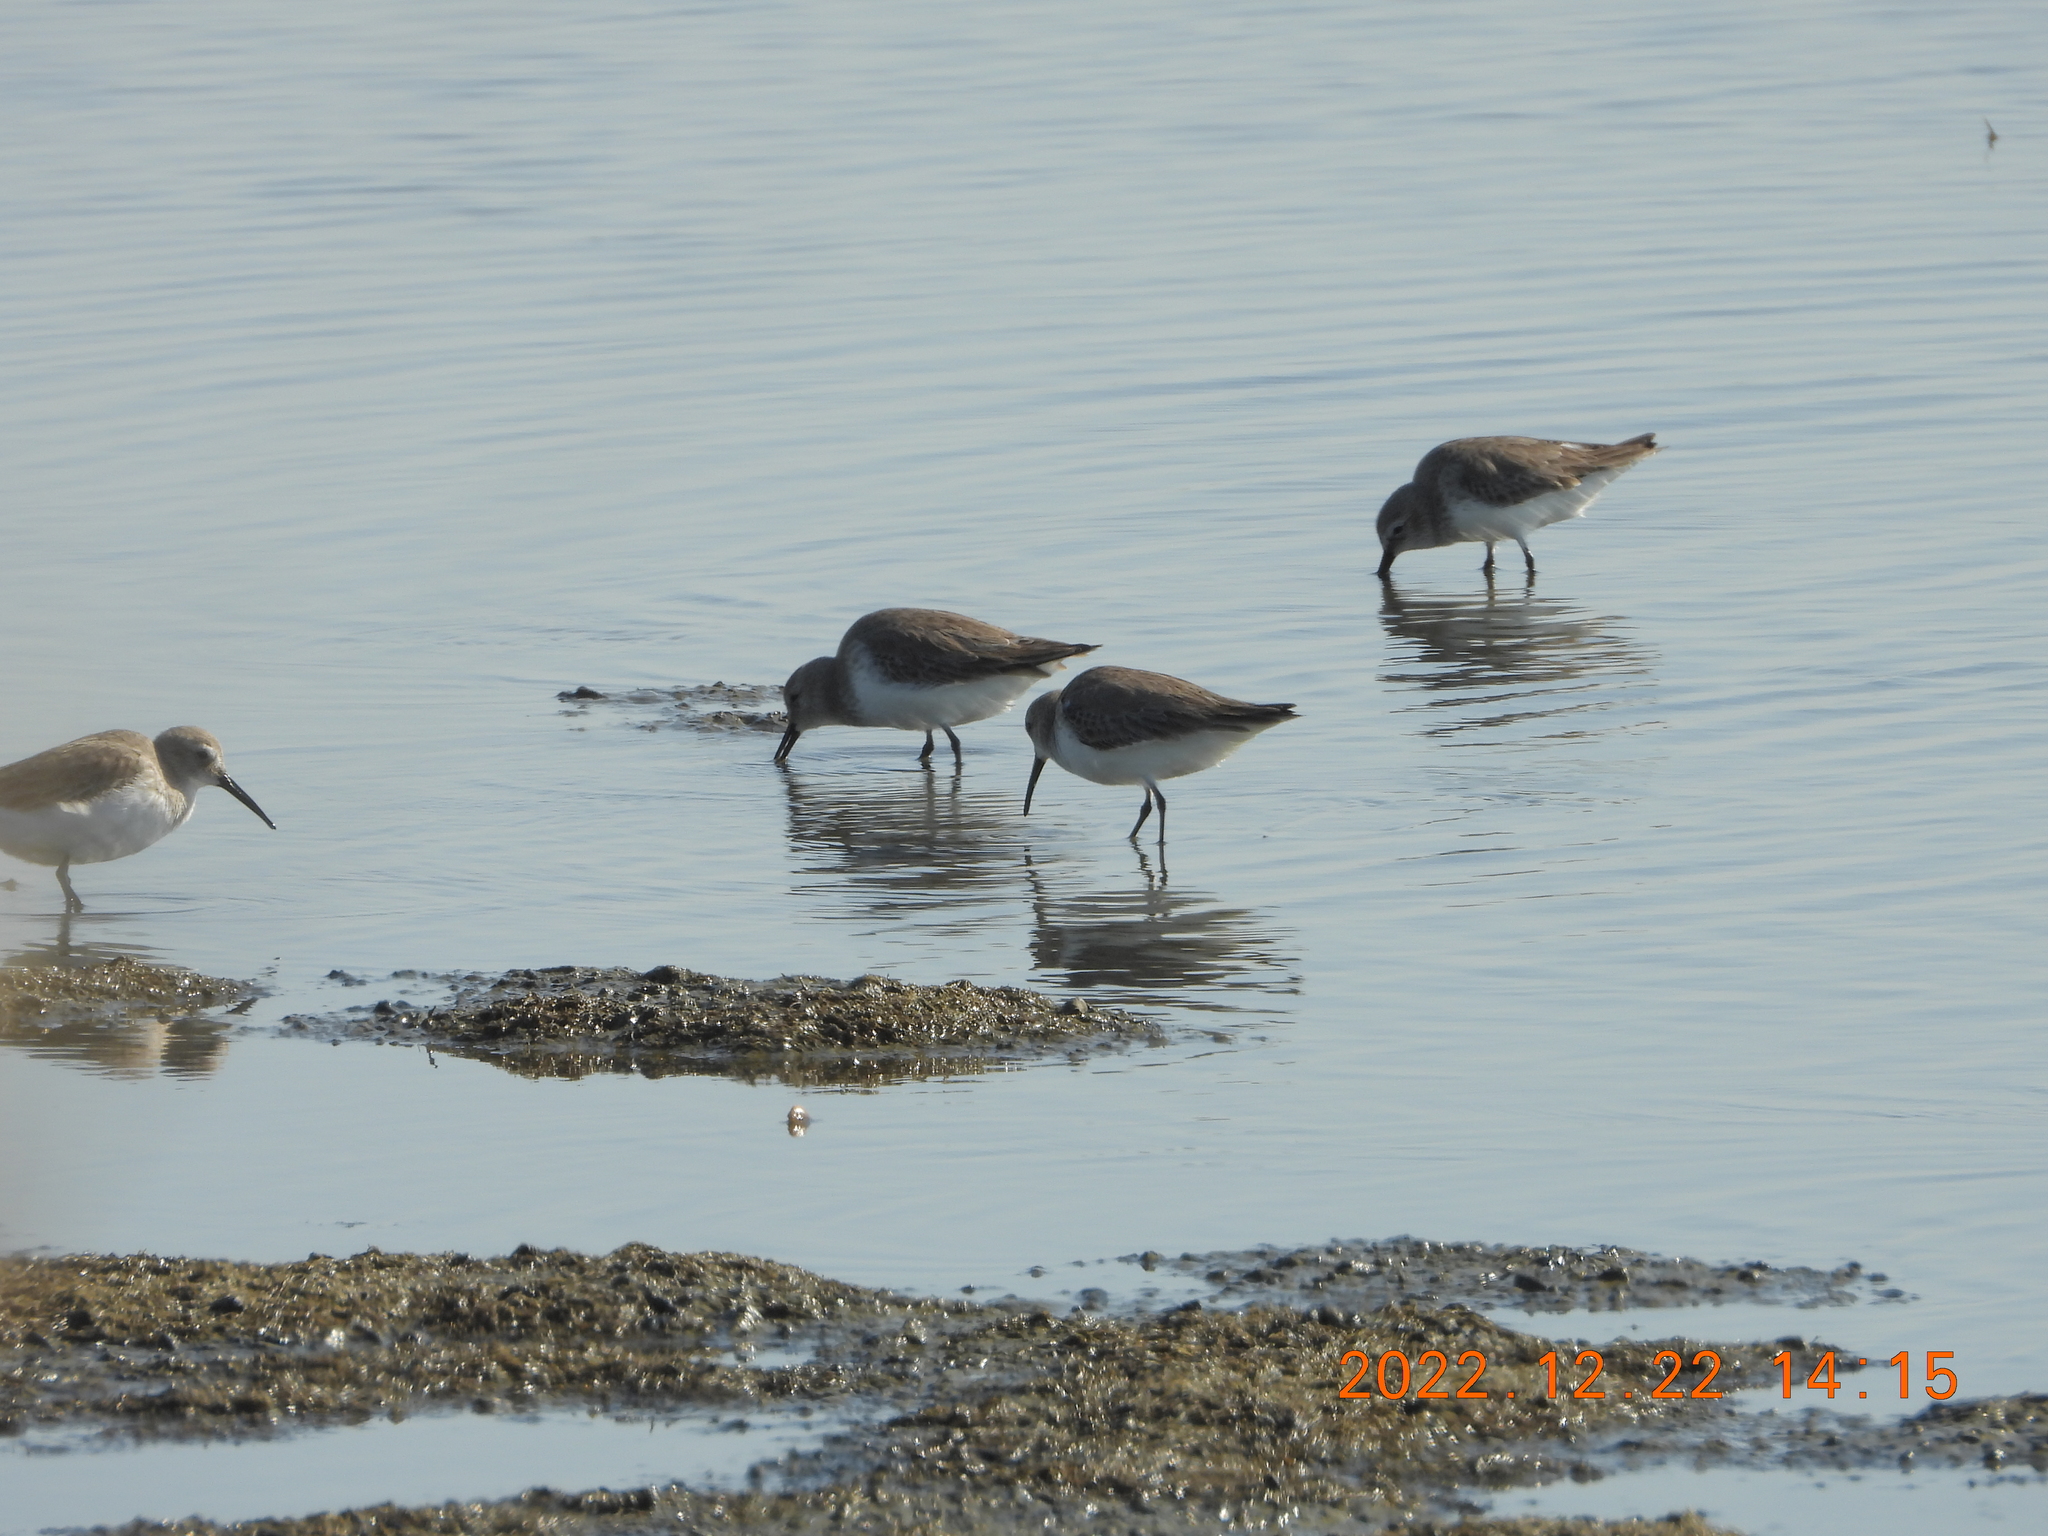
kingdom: Animalia
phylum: Chordata
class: Aves
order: Charadriiformes
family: Scolopacidae
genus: Calidris
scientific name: Calidris alpina
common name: Dunlin
